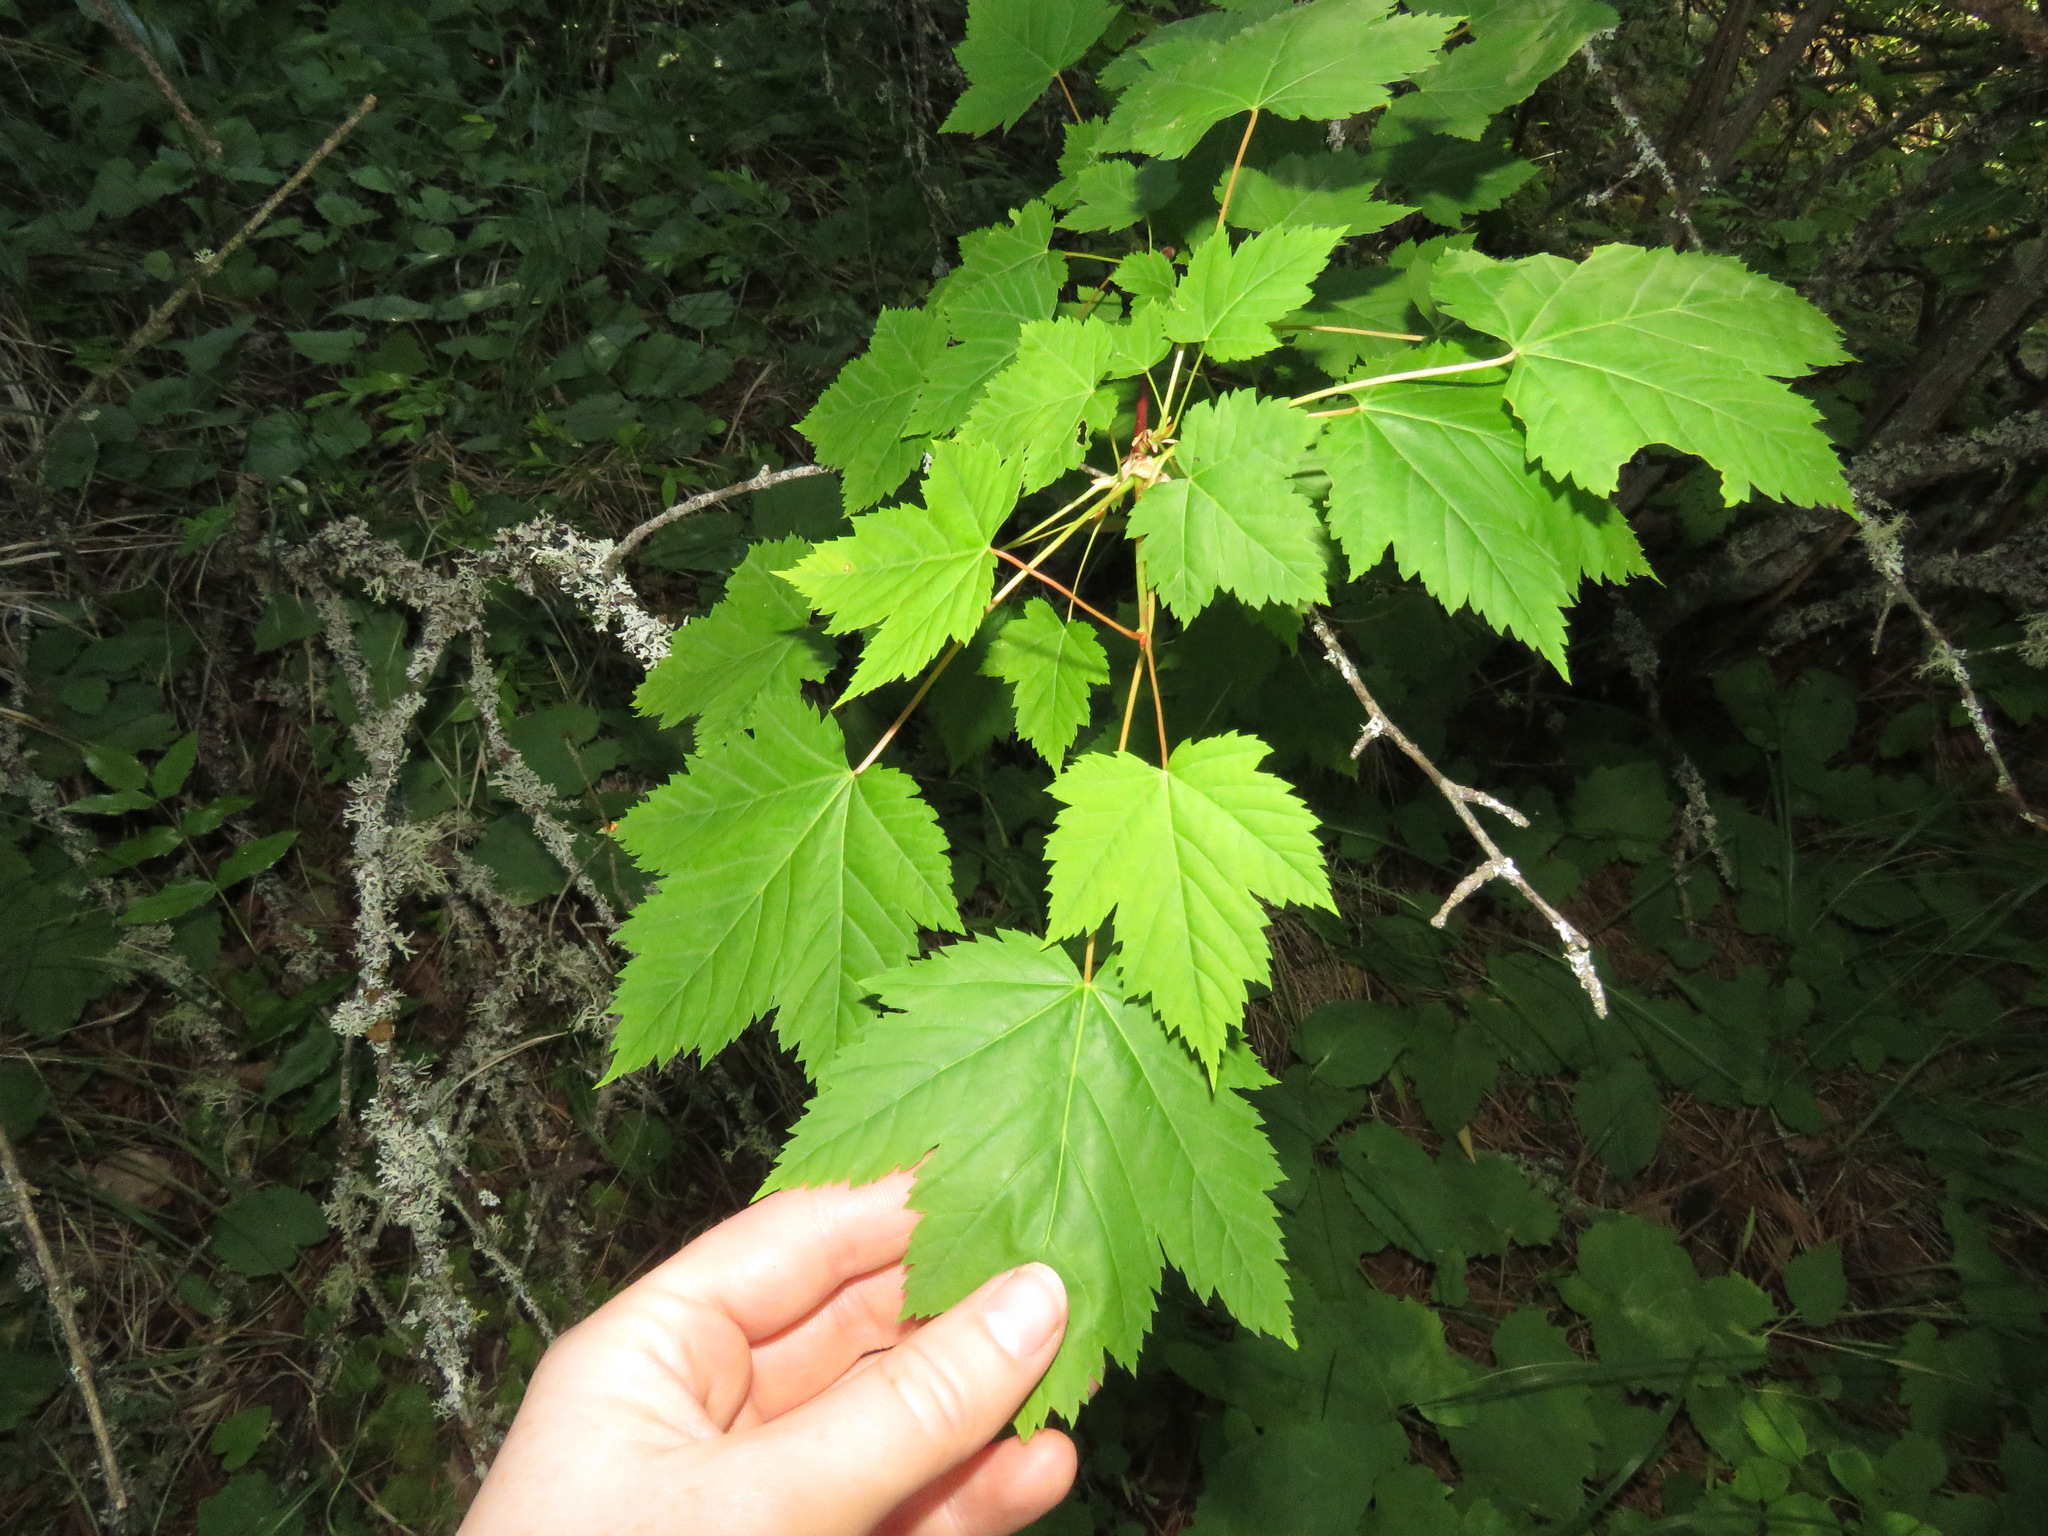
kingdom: Plantae
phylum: Tracheophyta
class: Magnoliopsida
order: Sapindales
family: Sapindaceae
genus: Acer
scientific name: Acer glabrum
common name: Rocky mountain maple
